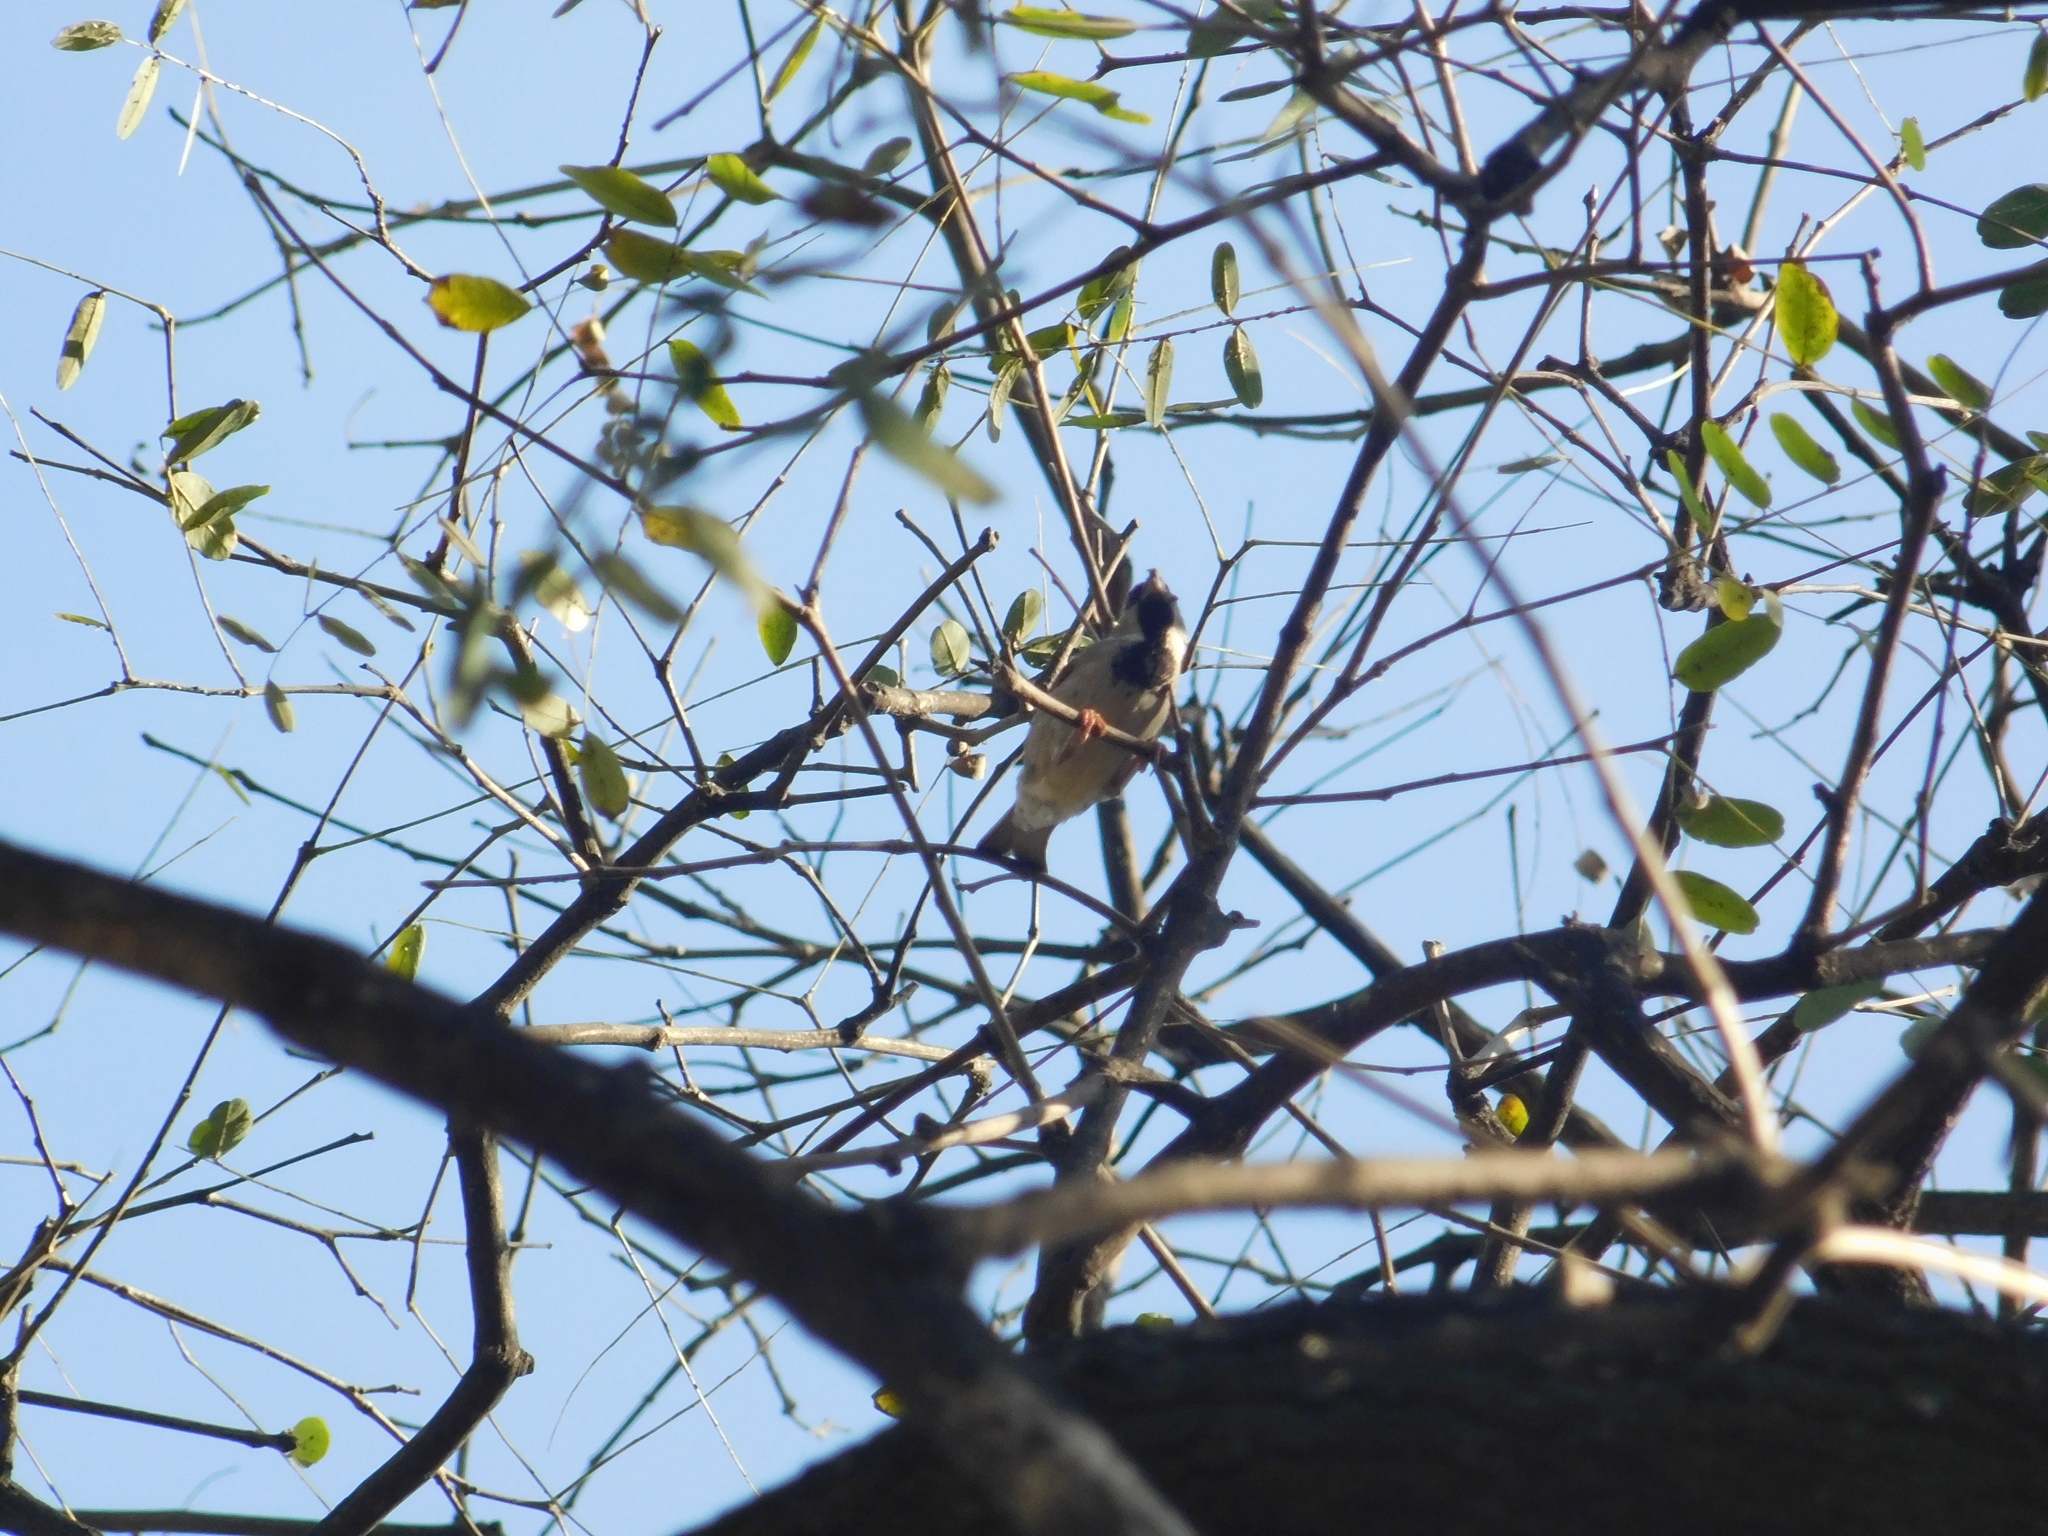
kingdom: Animalia
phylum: Chordata
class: Aves
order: Passeriformes
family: Passeridae
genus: Passer
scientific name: Passer domesticus
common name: House sparrow
